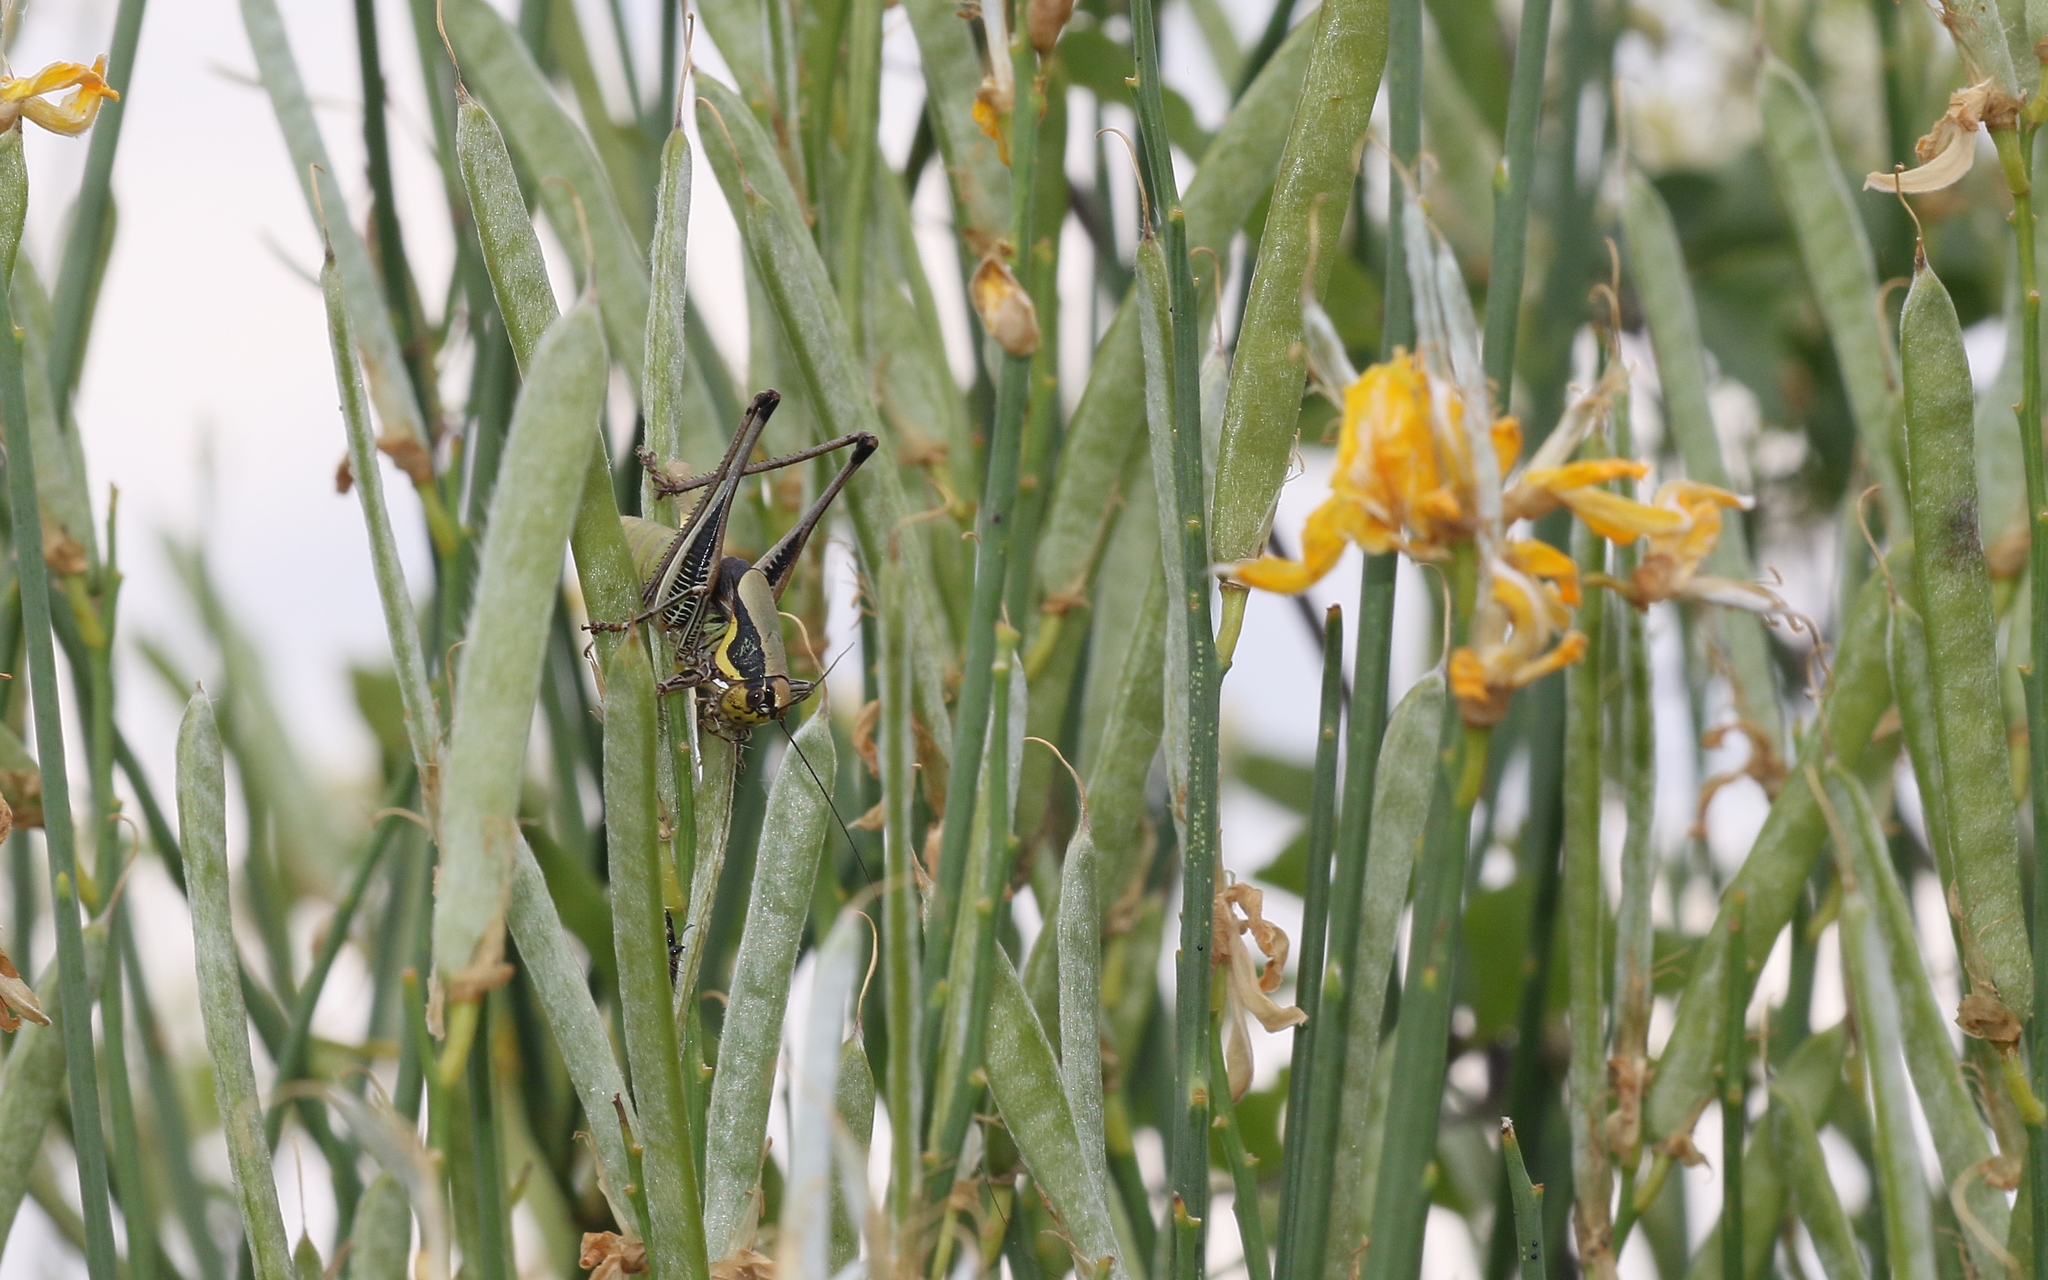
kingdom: Animalia
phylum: Arthropoda
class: Insecta
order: Orthoptera
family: Tettigoniidae
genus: Eupholidoptera
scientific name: Eupholidoptera megastyla
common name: Greek marbled bush-cricket
